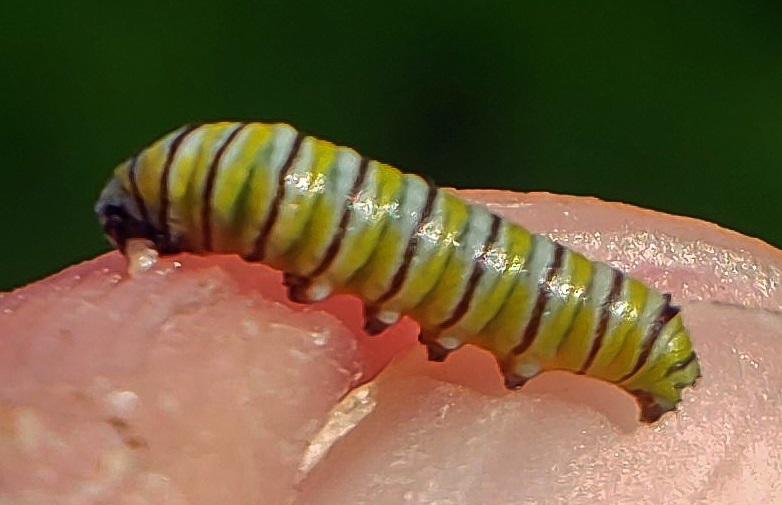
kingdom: Animalia
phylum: Arthropoda
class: Insecta
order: Lepidoptera
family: Nymphalidae
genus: Danaus
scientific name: Danaus plexippus
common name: Monarch
